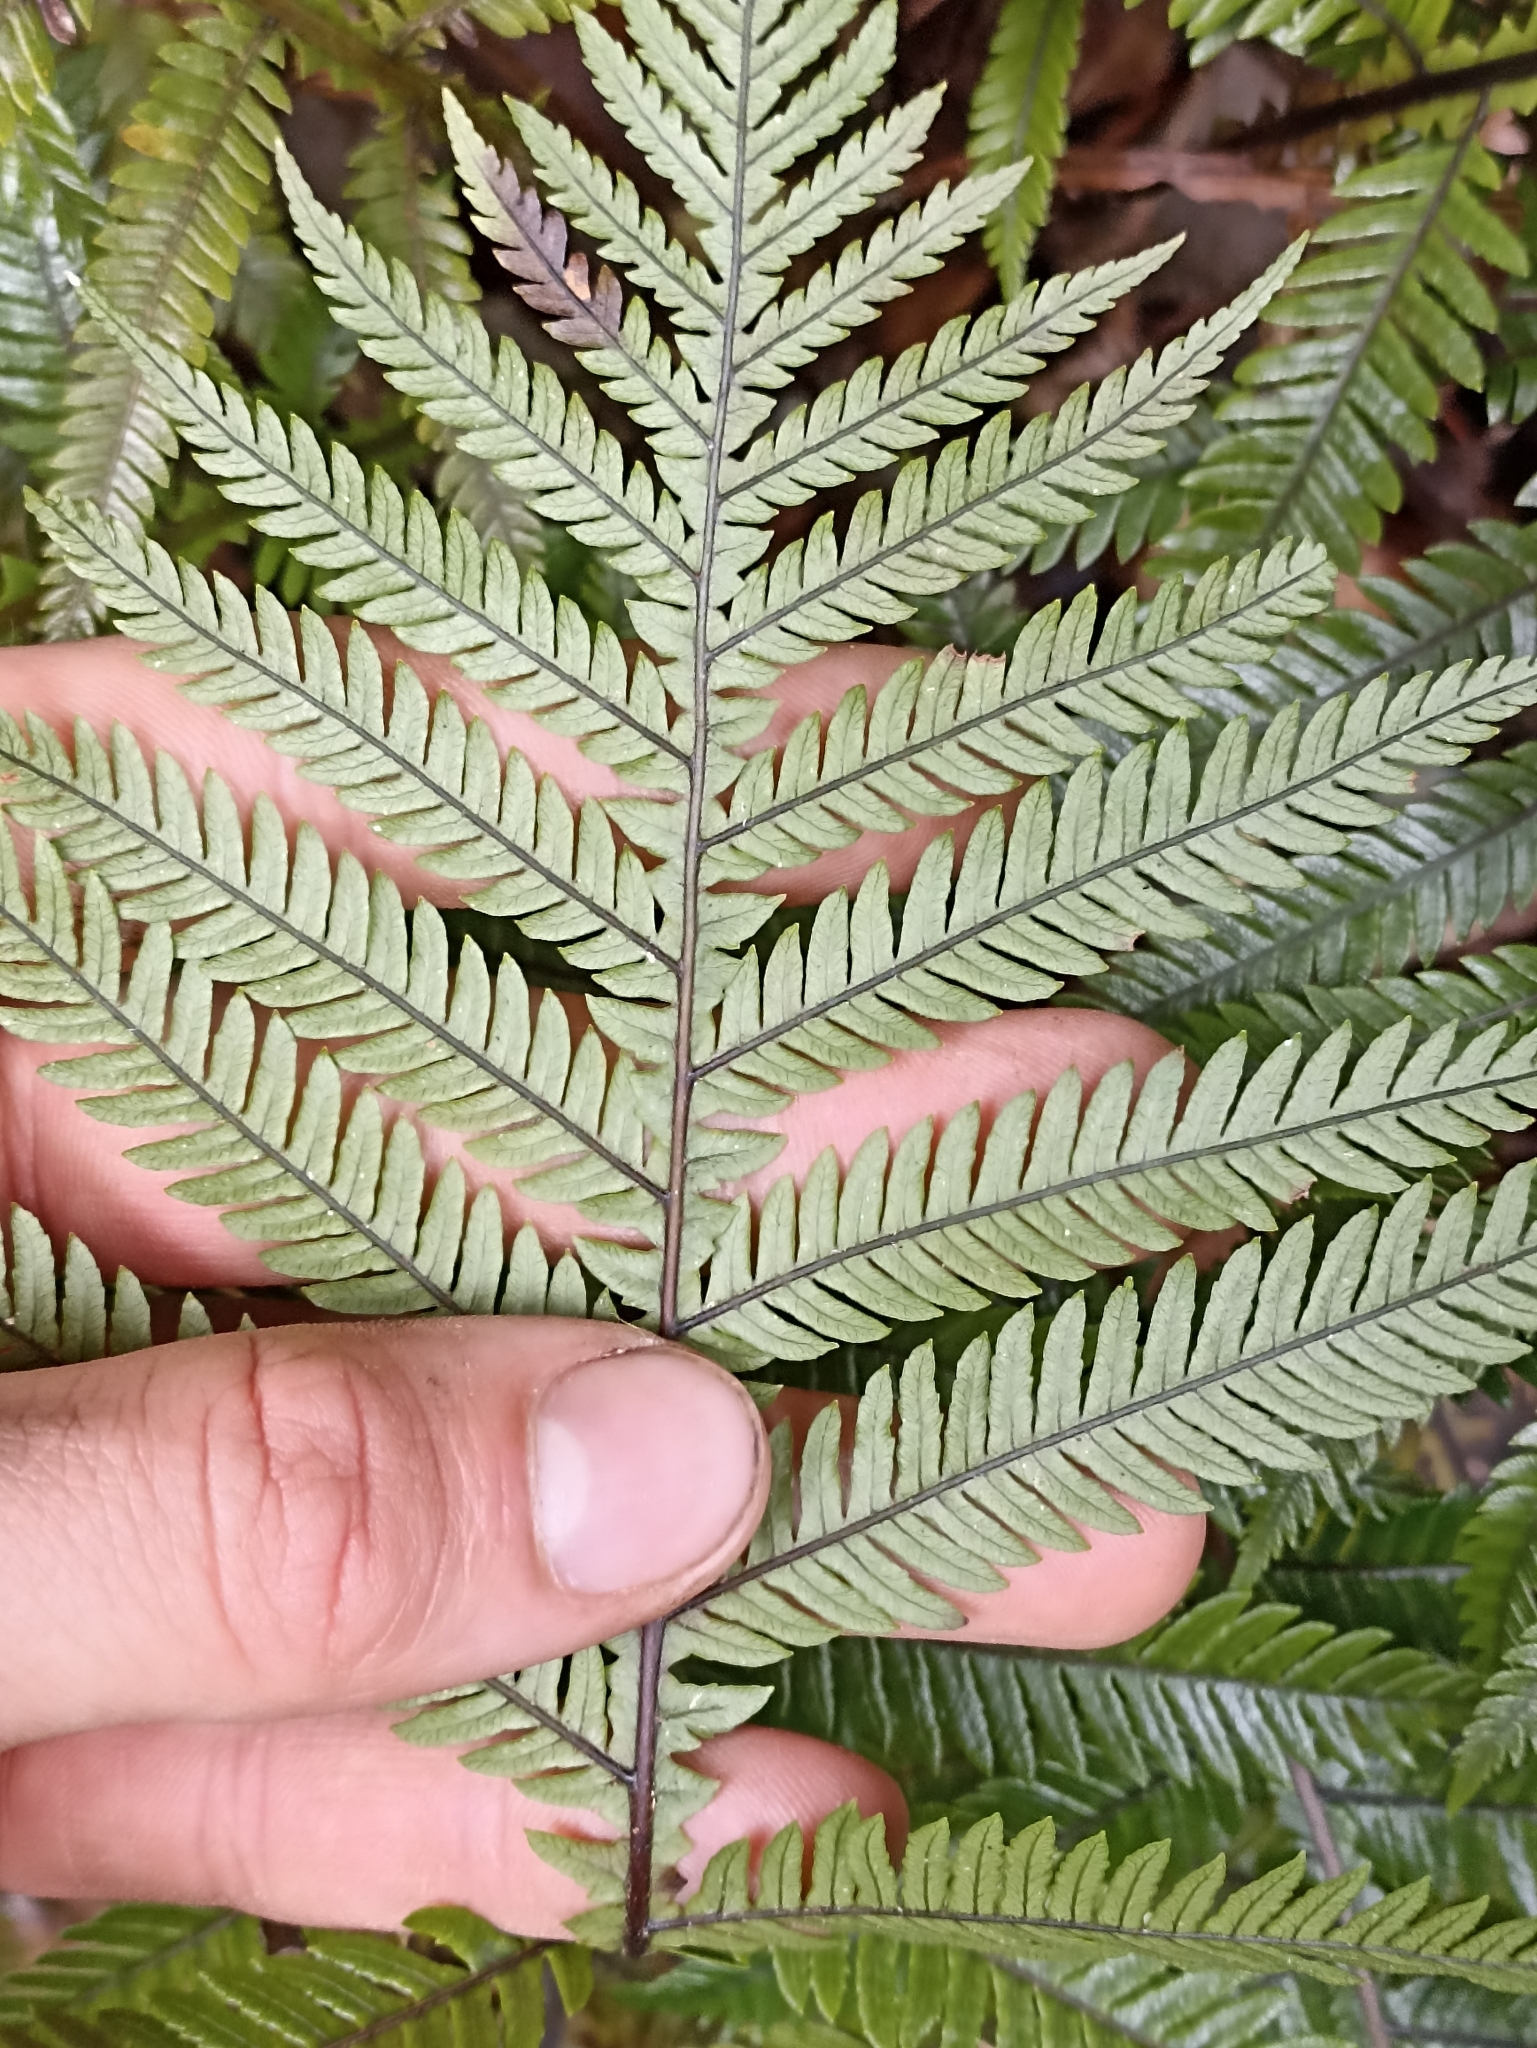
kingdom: Plantae
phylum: Tracheophyta
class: Polypodiopsida
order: Polypodiales
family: Blechnaceae
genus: Diploblechnum
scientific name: Diploblechnum fraseri
